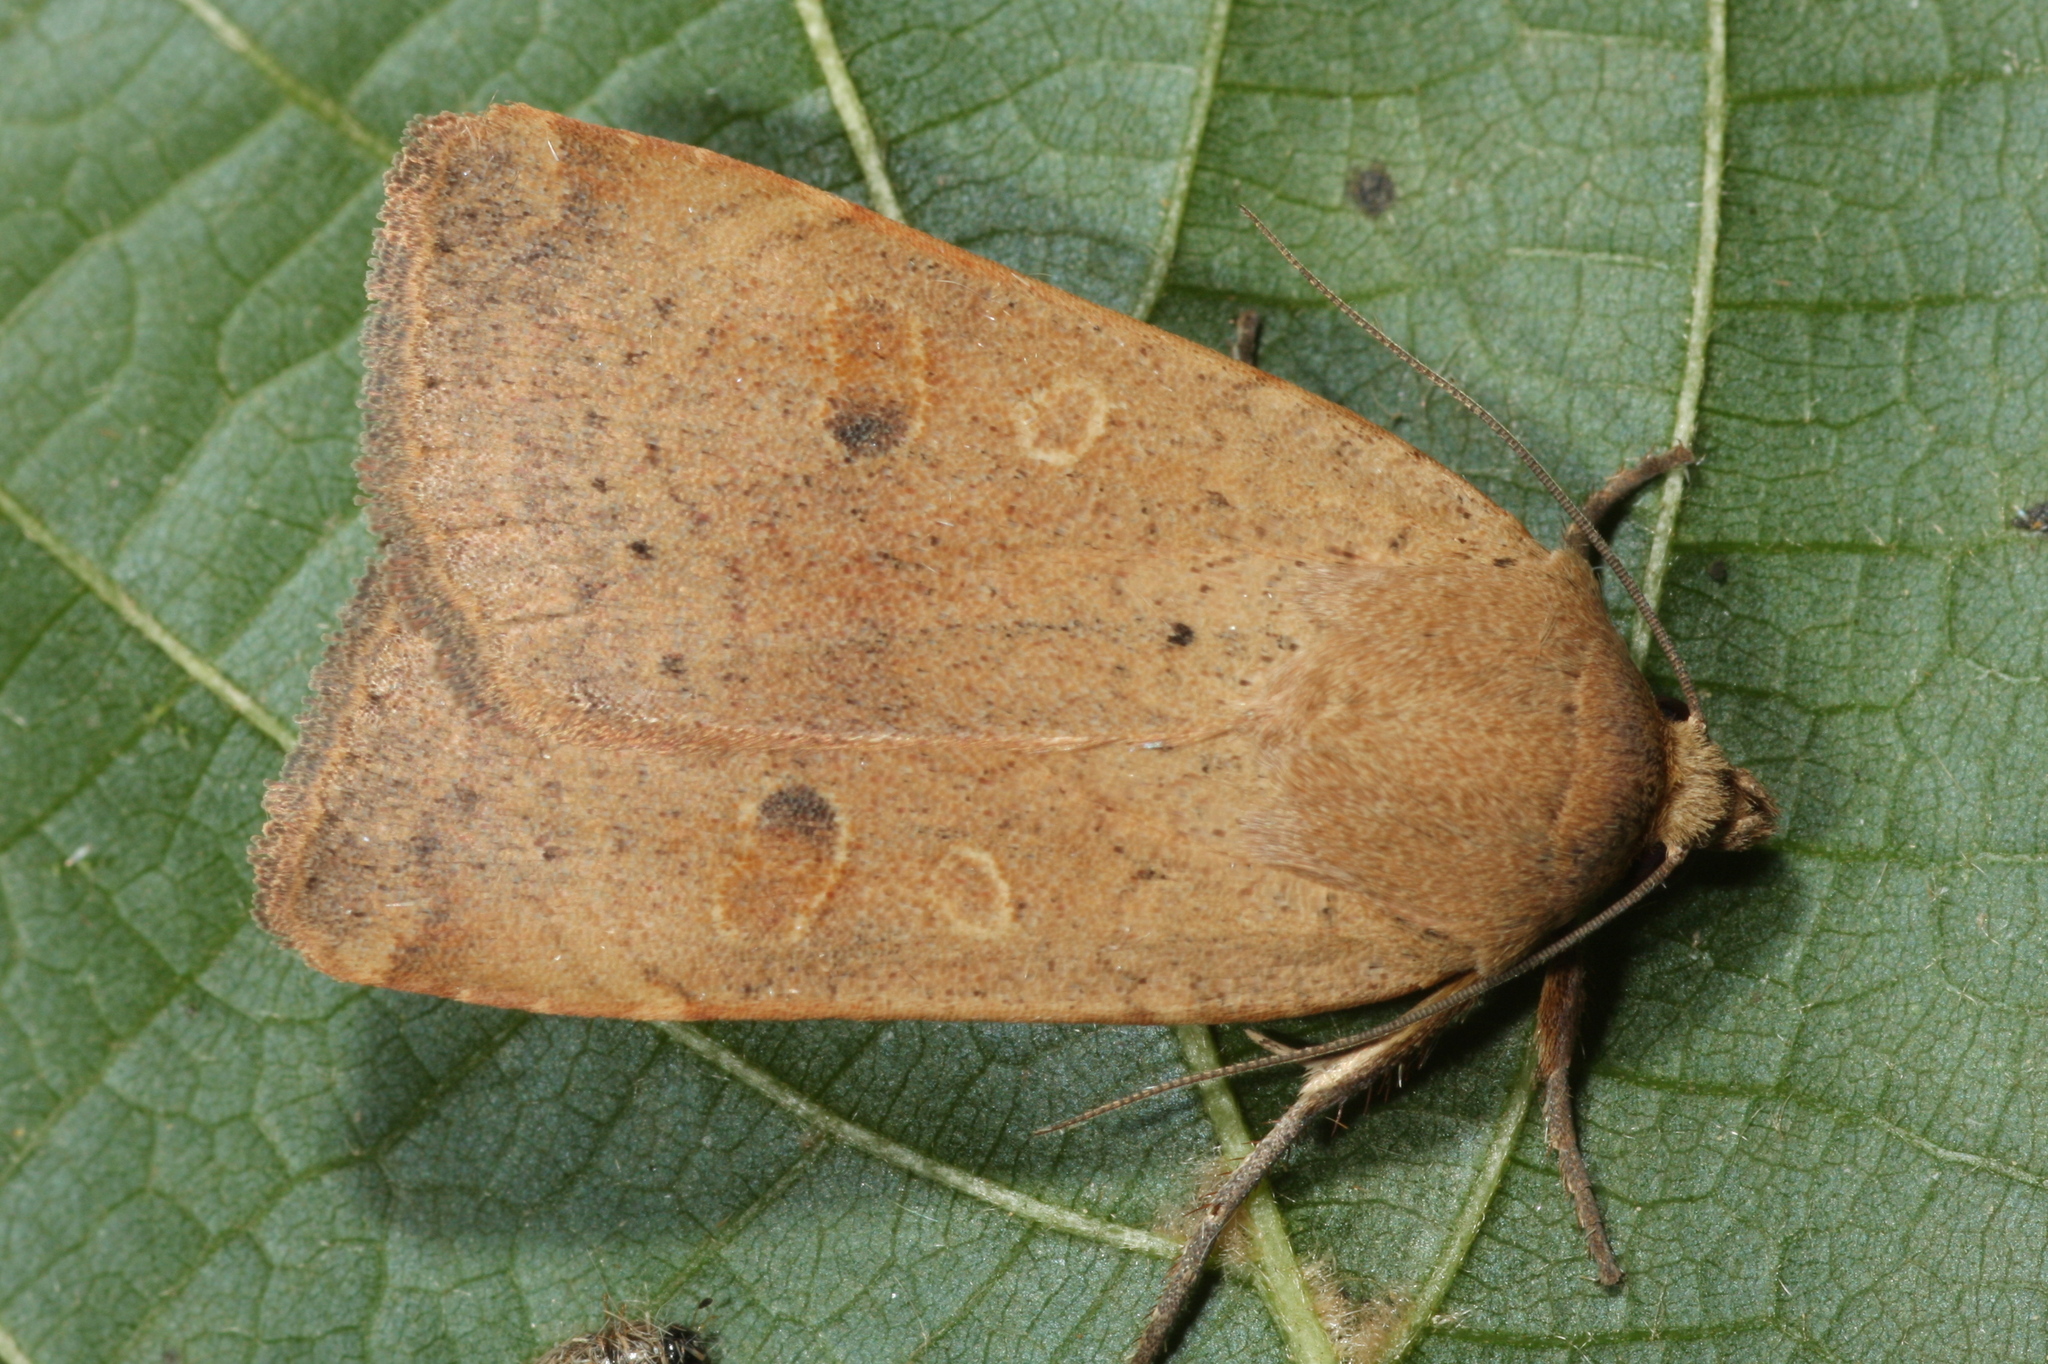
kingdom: Animalia
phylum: Arthropoda
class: Insecta
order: Lepidoptera
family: Noctuidae
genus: Noctua
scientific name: Noctua comes
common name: Lesser yellow underwing
